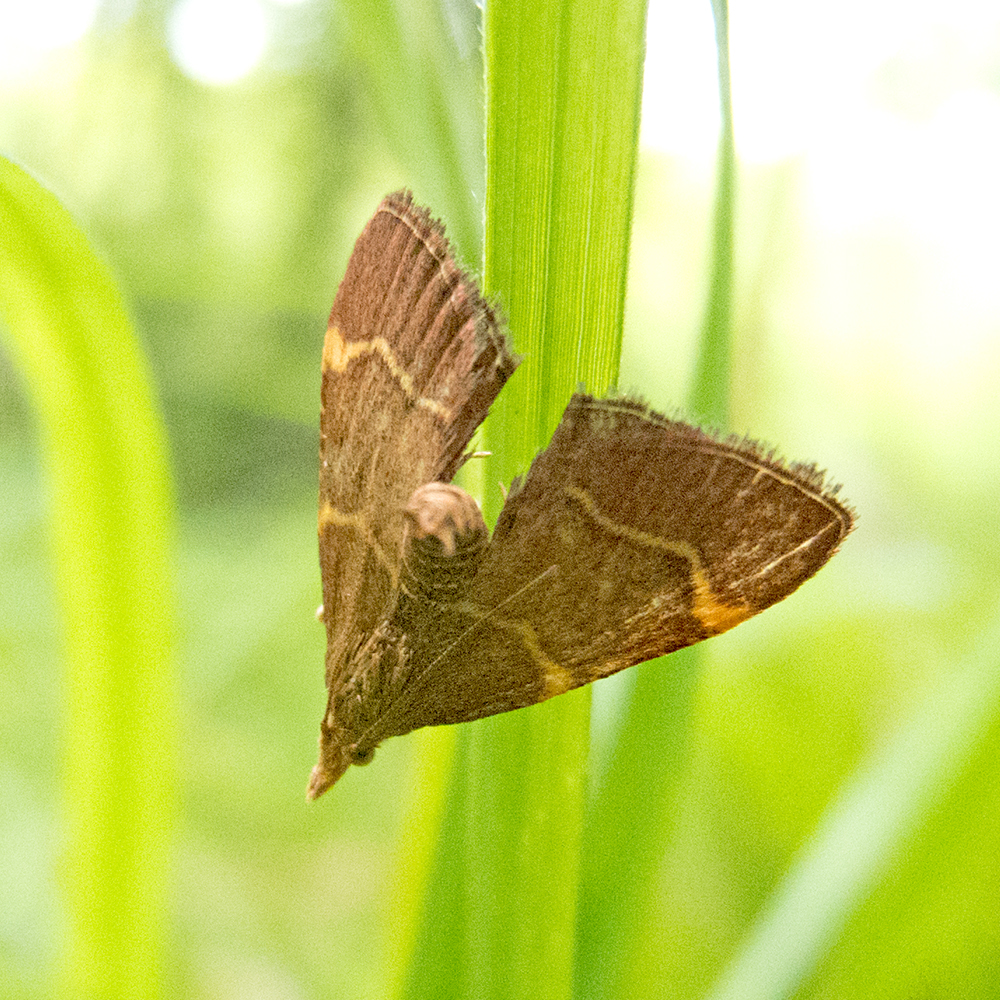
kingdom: Animalia
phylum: Arthropoda
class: Insecta
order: Lepidoptera
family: Pyralidae
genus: Herculia
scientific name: Herculia rubidalis
